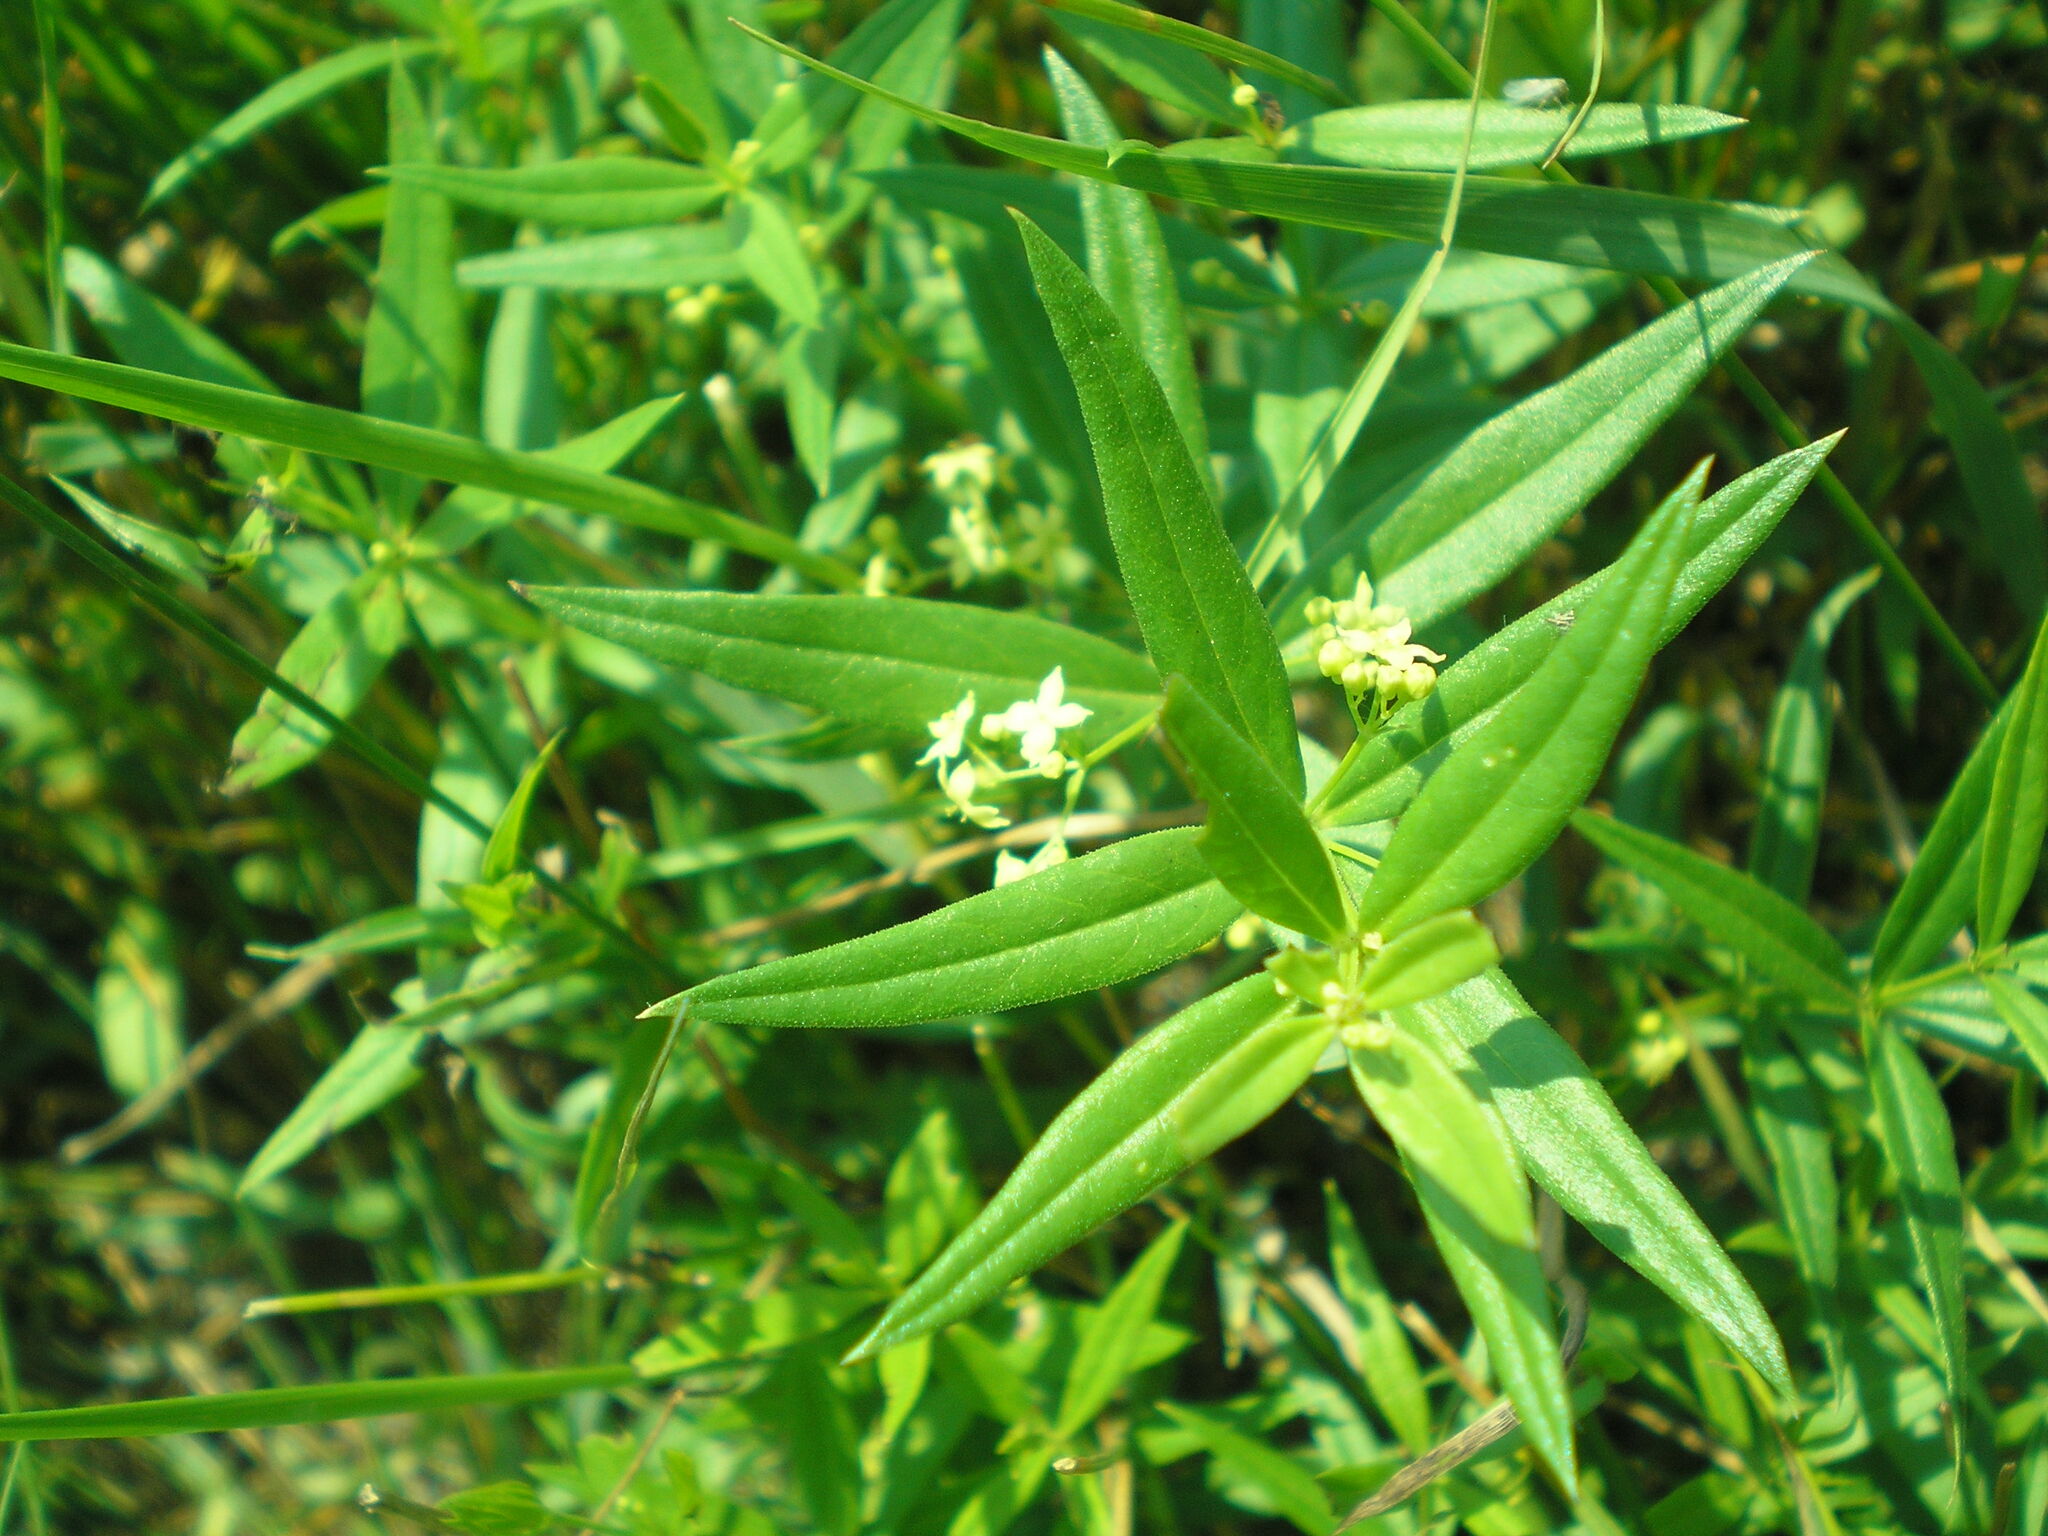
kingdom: Plantae
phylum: Tracheophyta
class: Magnoliopsida
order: Gentianales
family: Rubiaceae
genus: Rubia
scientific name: Rubia tinctorum
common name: Dyer's madder
